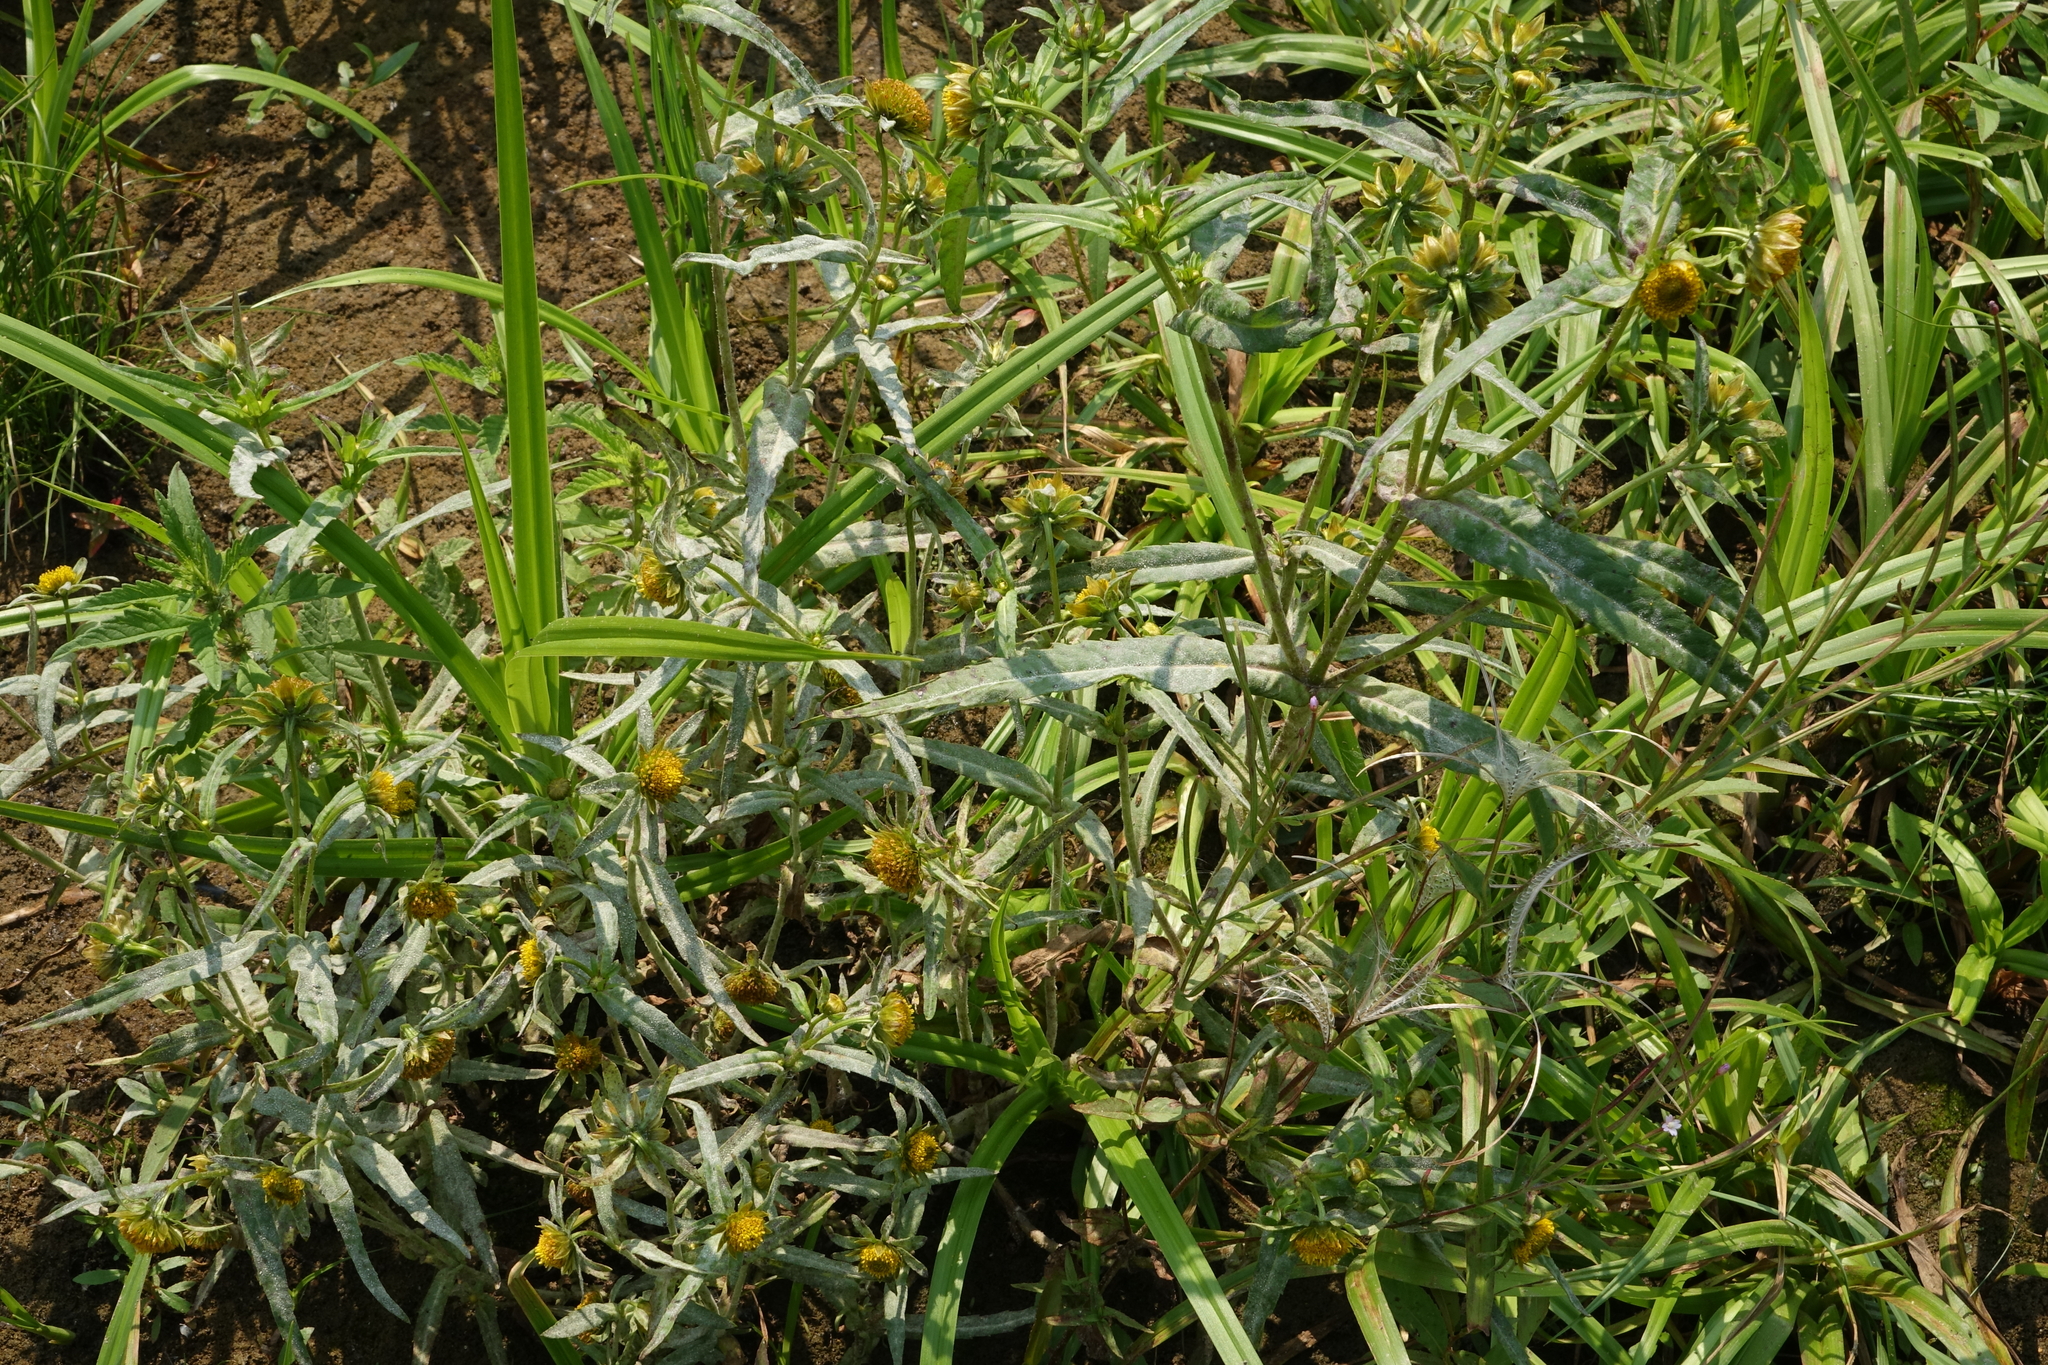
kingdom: Plantae
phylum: Tracheophyta
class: Magnoliopsida
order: Asterales
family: Asteraceae
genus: Bidens
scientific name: Bidens cernua
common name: Nodding bur-marigold
